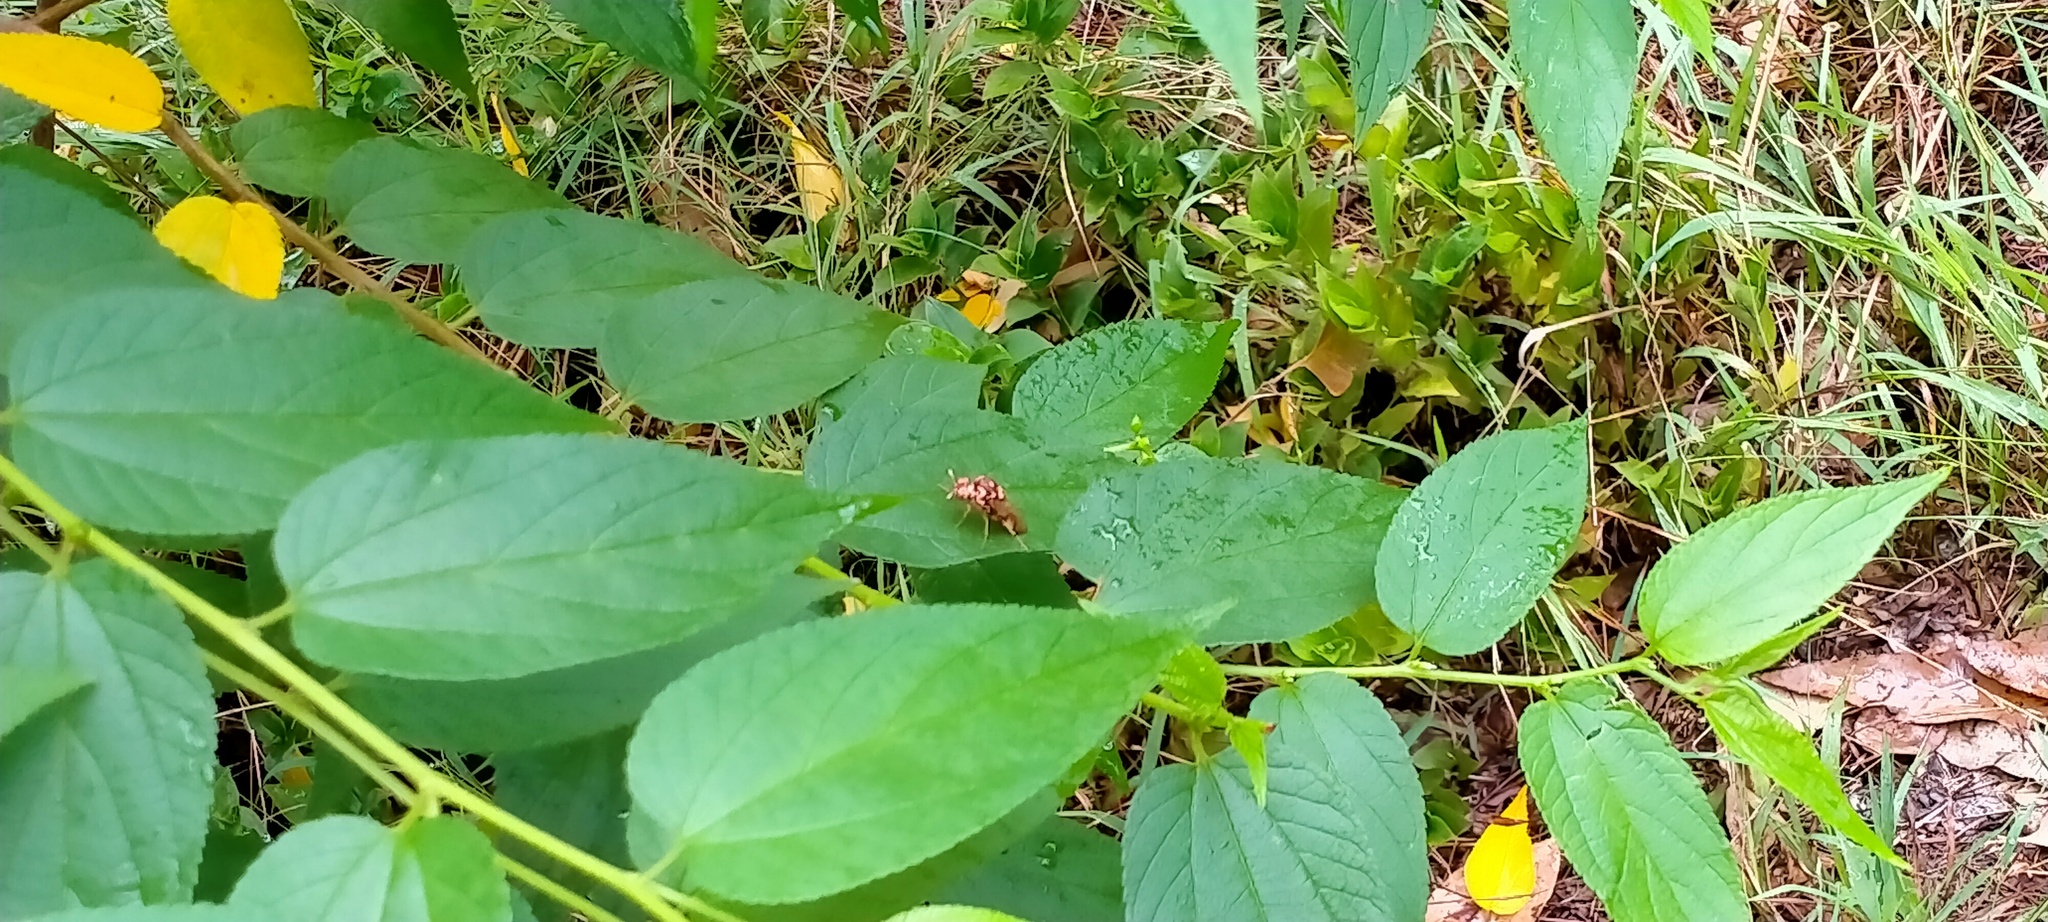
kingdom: Plantae
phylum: Tracheophyta
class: Magnoliopsida
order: Rosales
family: Cannabaceae
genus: Trema
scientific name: Trema tomentosum
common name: Peach-leaf-poisonbush
